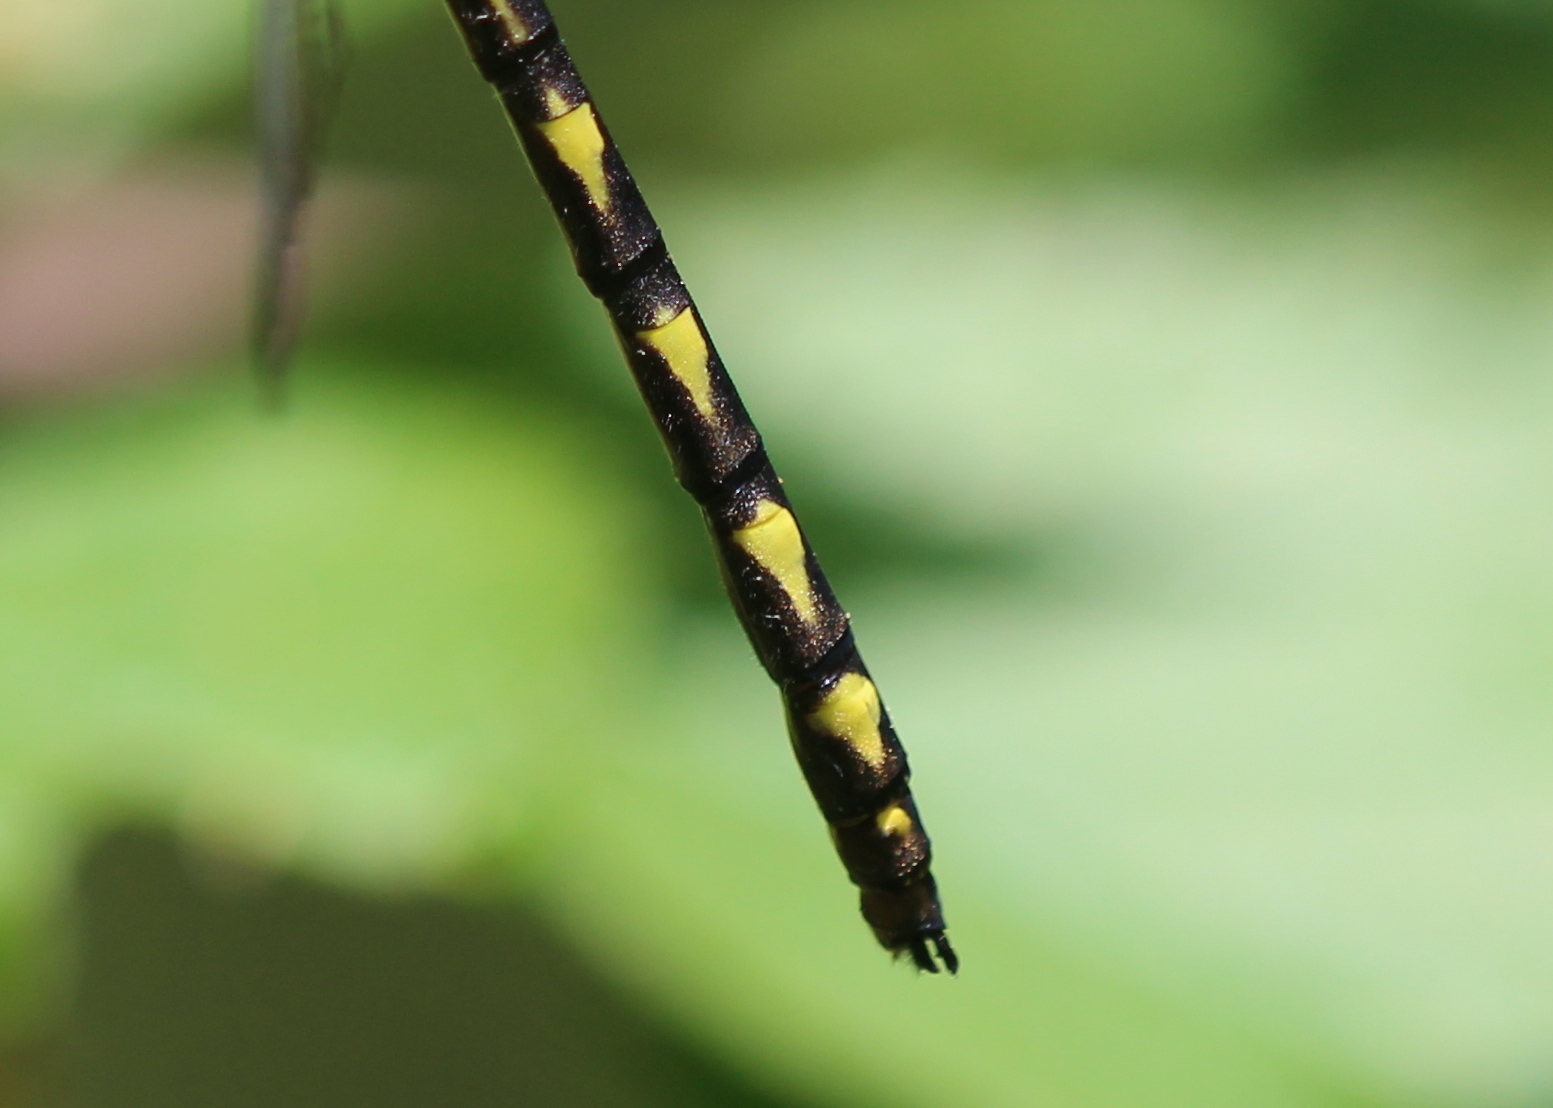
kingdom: Animalia
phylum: Arthropoda
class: Insecta
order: Odonata
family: Cordulegastridae
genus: Cordulegaster
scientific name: Cordulegaster diastatops
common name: Delta-spotted spiketail
